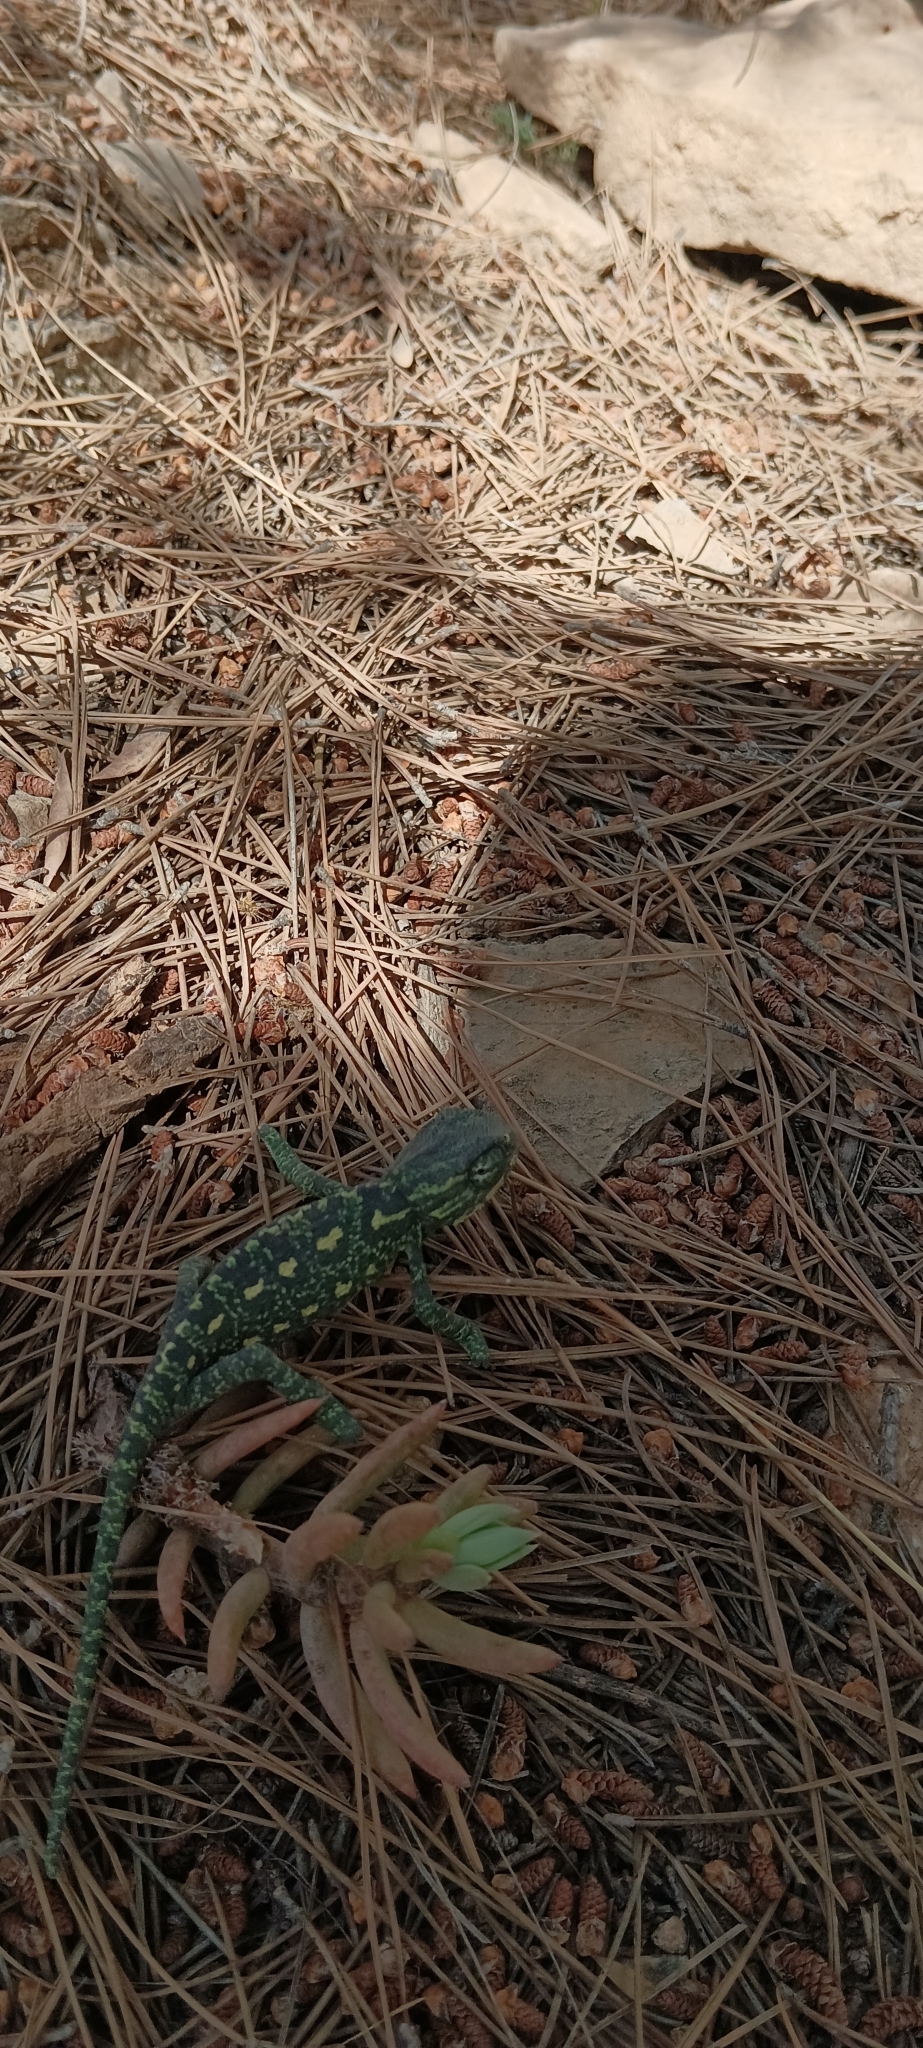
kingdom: Animalia
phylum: Chordata
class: Squamata
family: Chamaeleonidae
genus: Chamaeleo
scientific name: Chamaeleo chamaeleon
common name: Mediterranean chameleon
